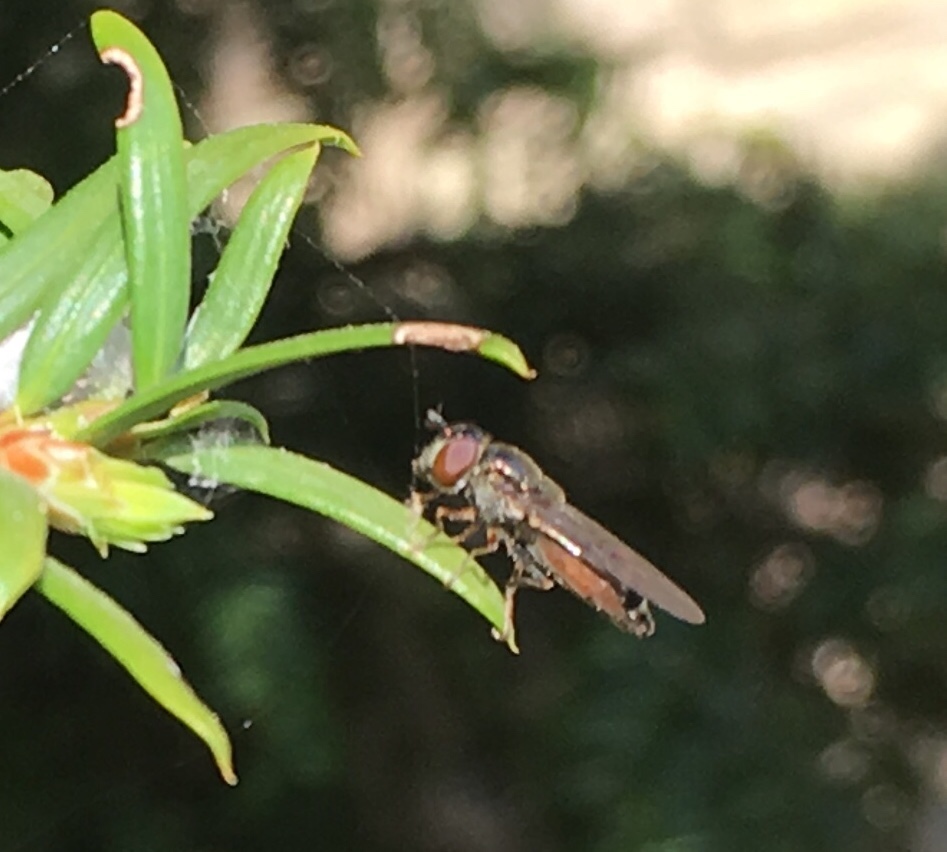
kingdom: Animalia
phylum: Arthropoda
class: Insecta
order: Diptera
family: Syrphidae
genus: Platycheirus
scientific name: Platycheirus
